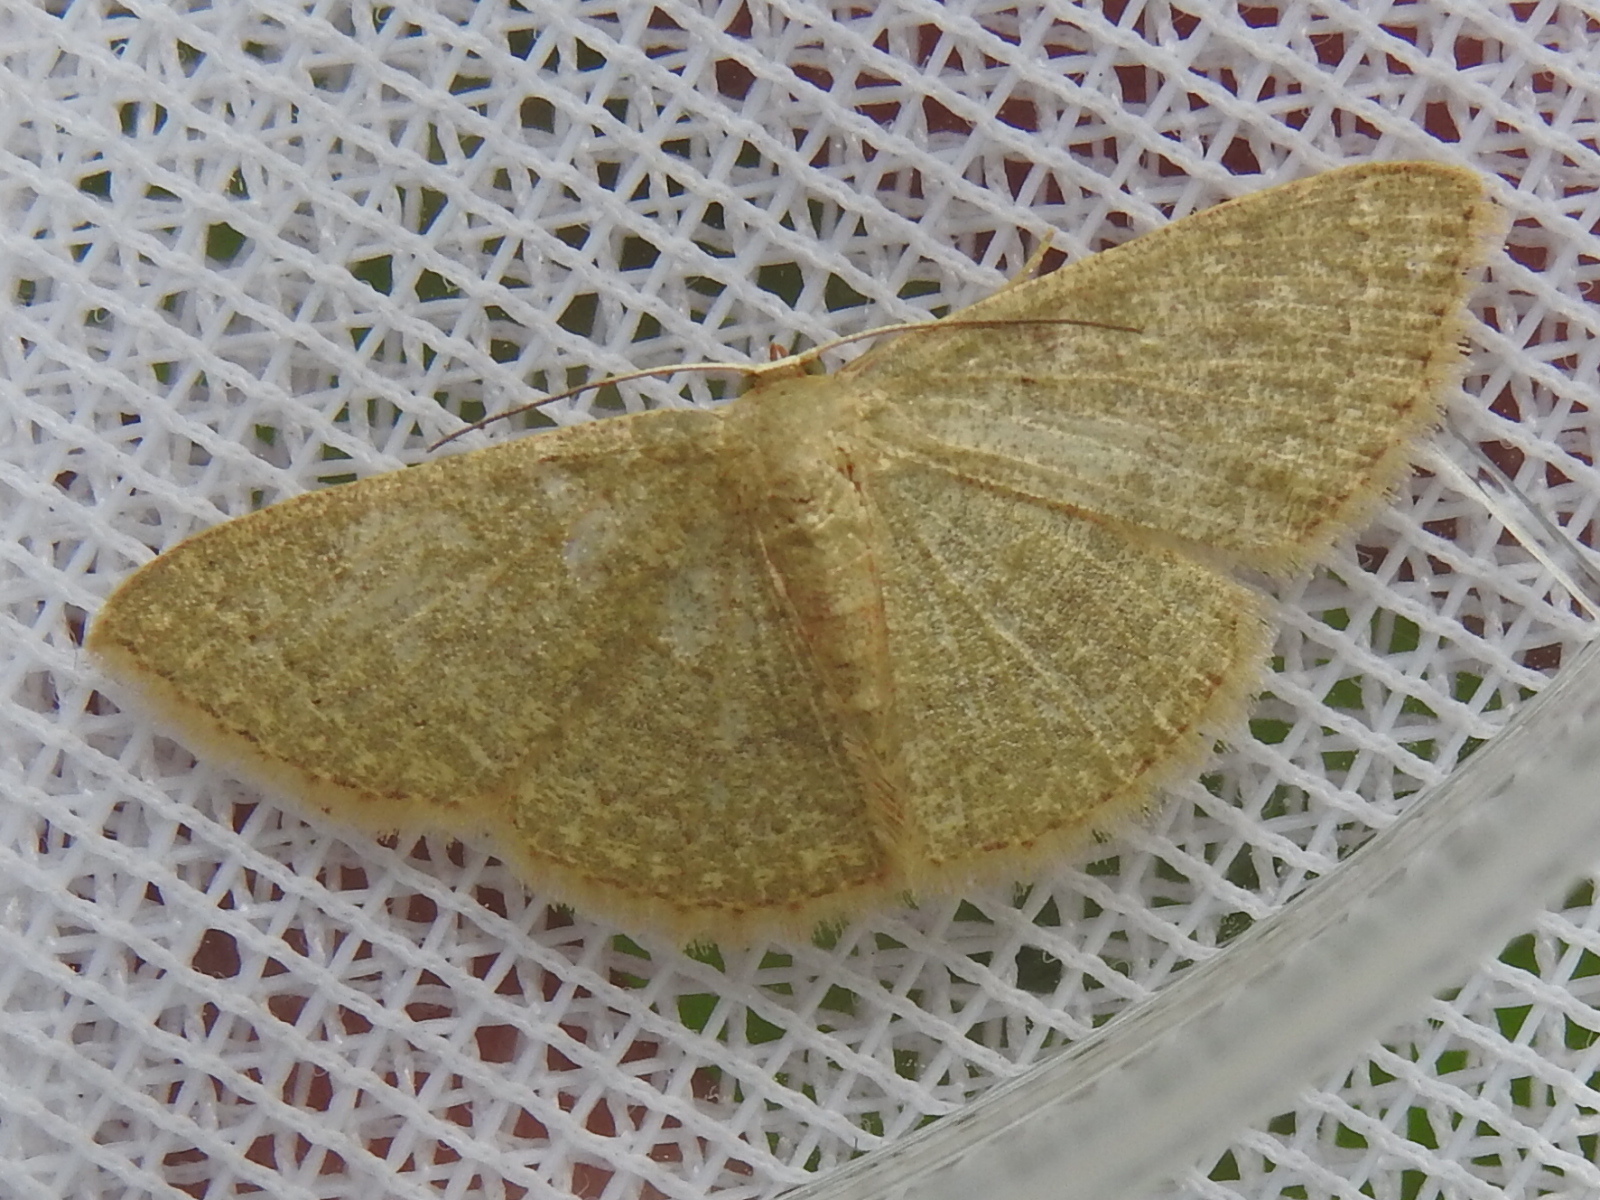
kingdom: Animalia
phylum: Arthropoda
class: Insecta
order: Lepidoptera
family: Geometridae
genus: Pleuroprucha
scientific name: Pleuroprucha insulsaria
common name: Common tan wave
